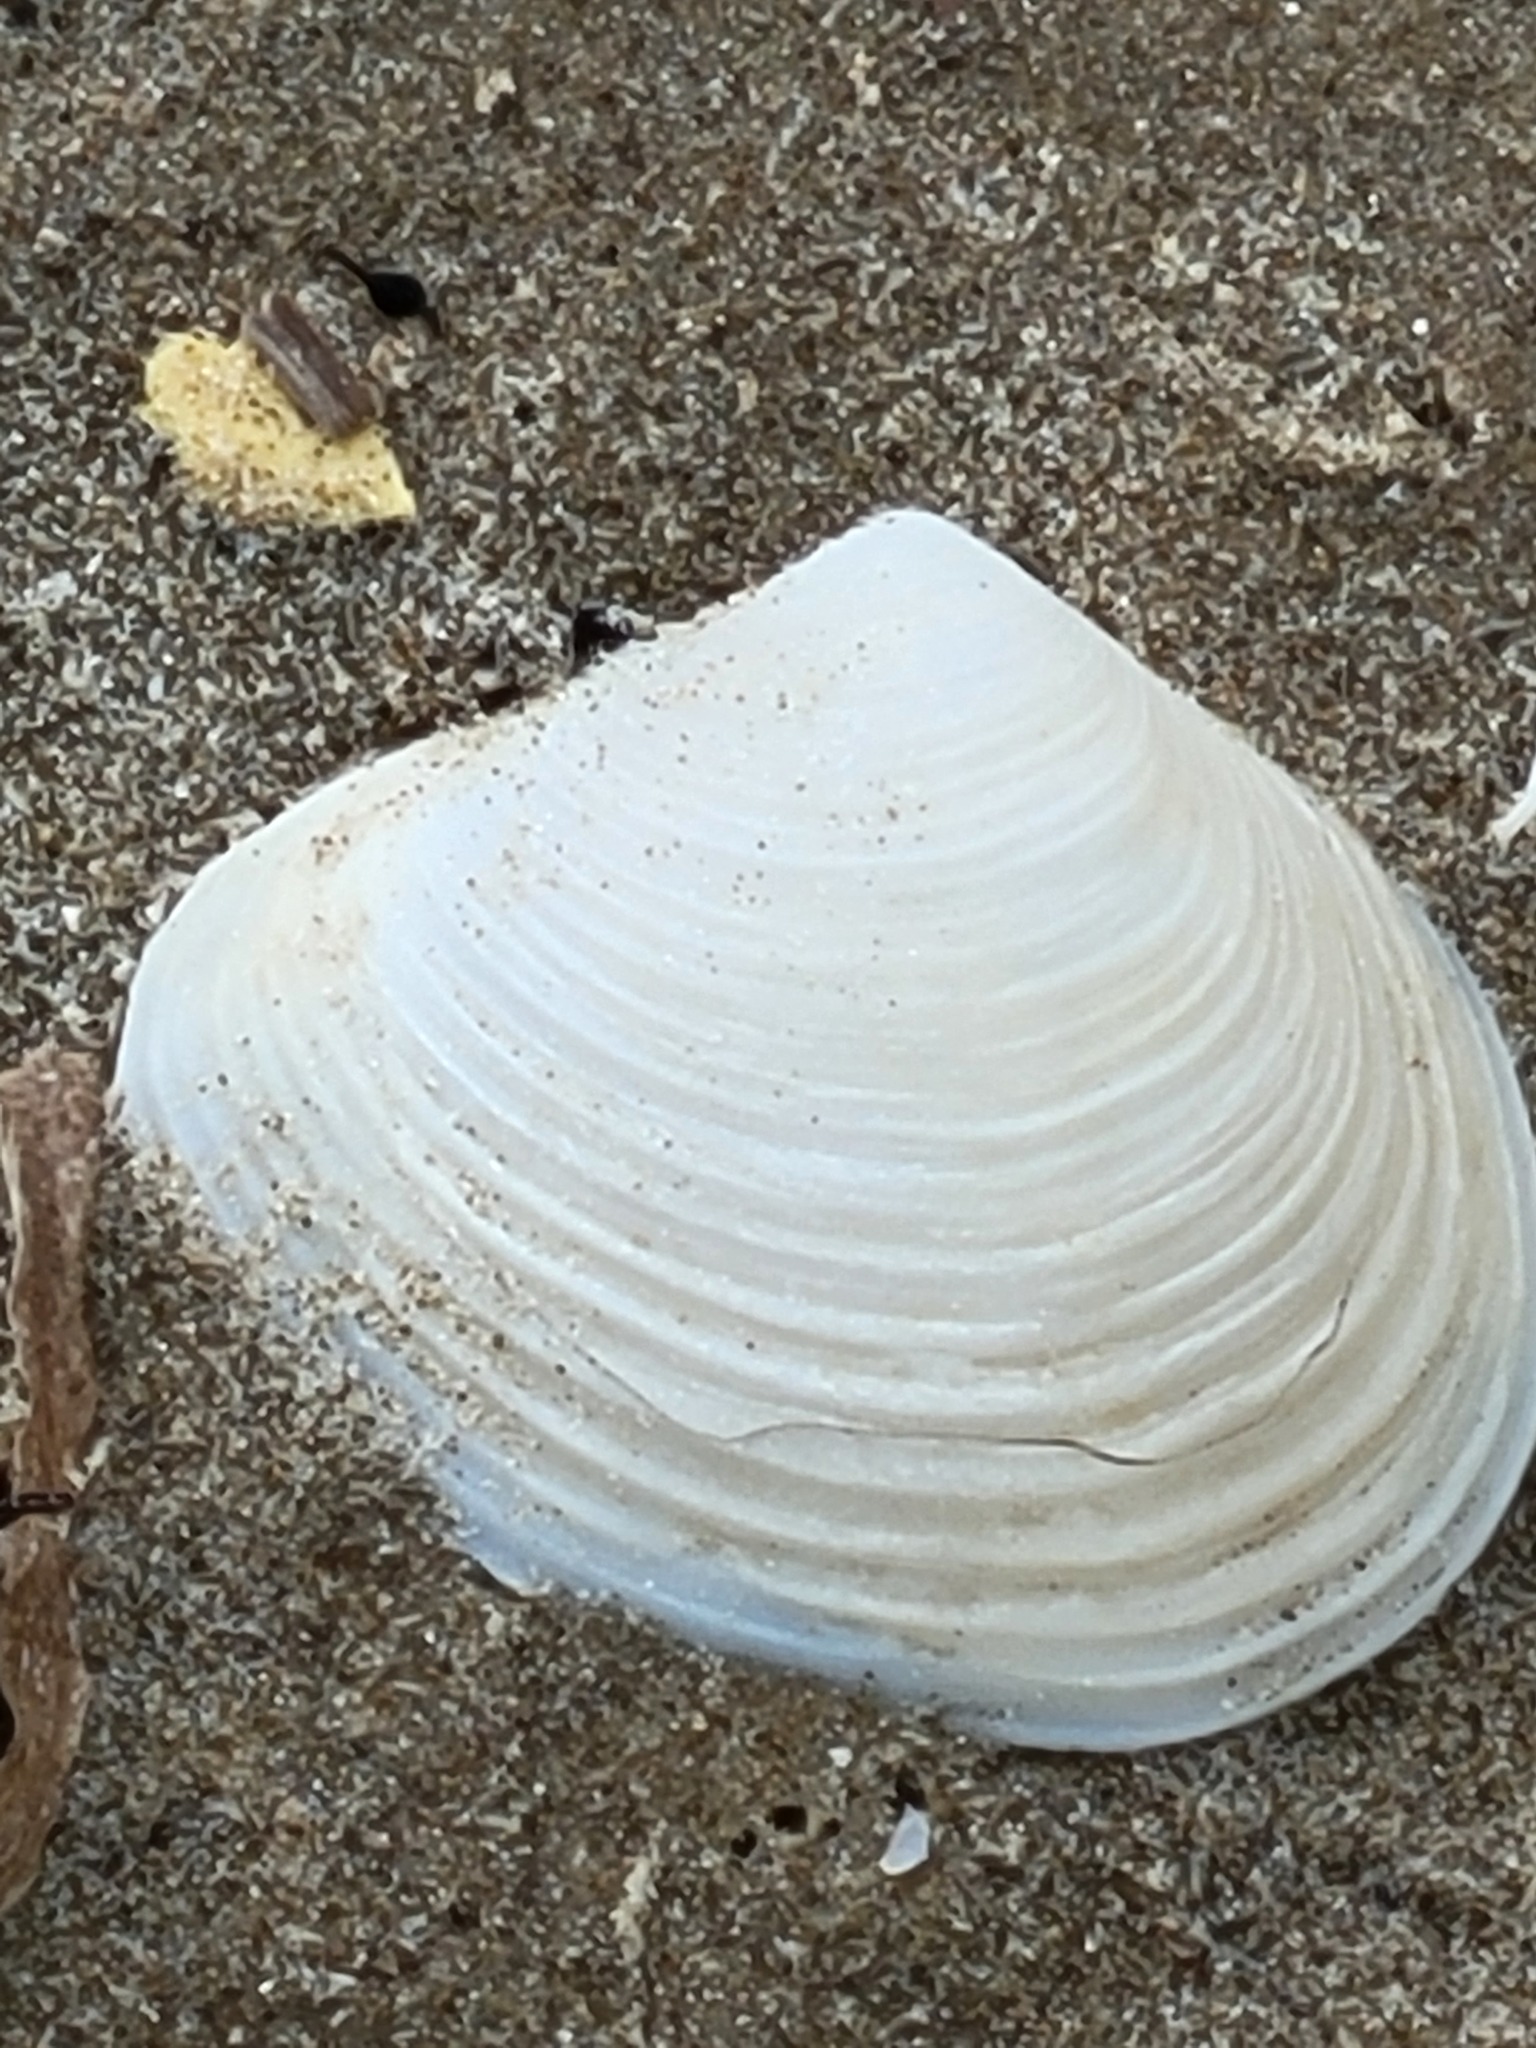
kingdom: Animalia
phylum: Mollusca
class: Bivalvia
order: Venerida
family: Anatinellidae
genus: Raeta
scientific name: Raeta plicatella
